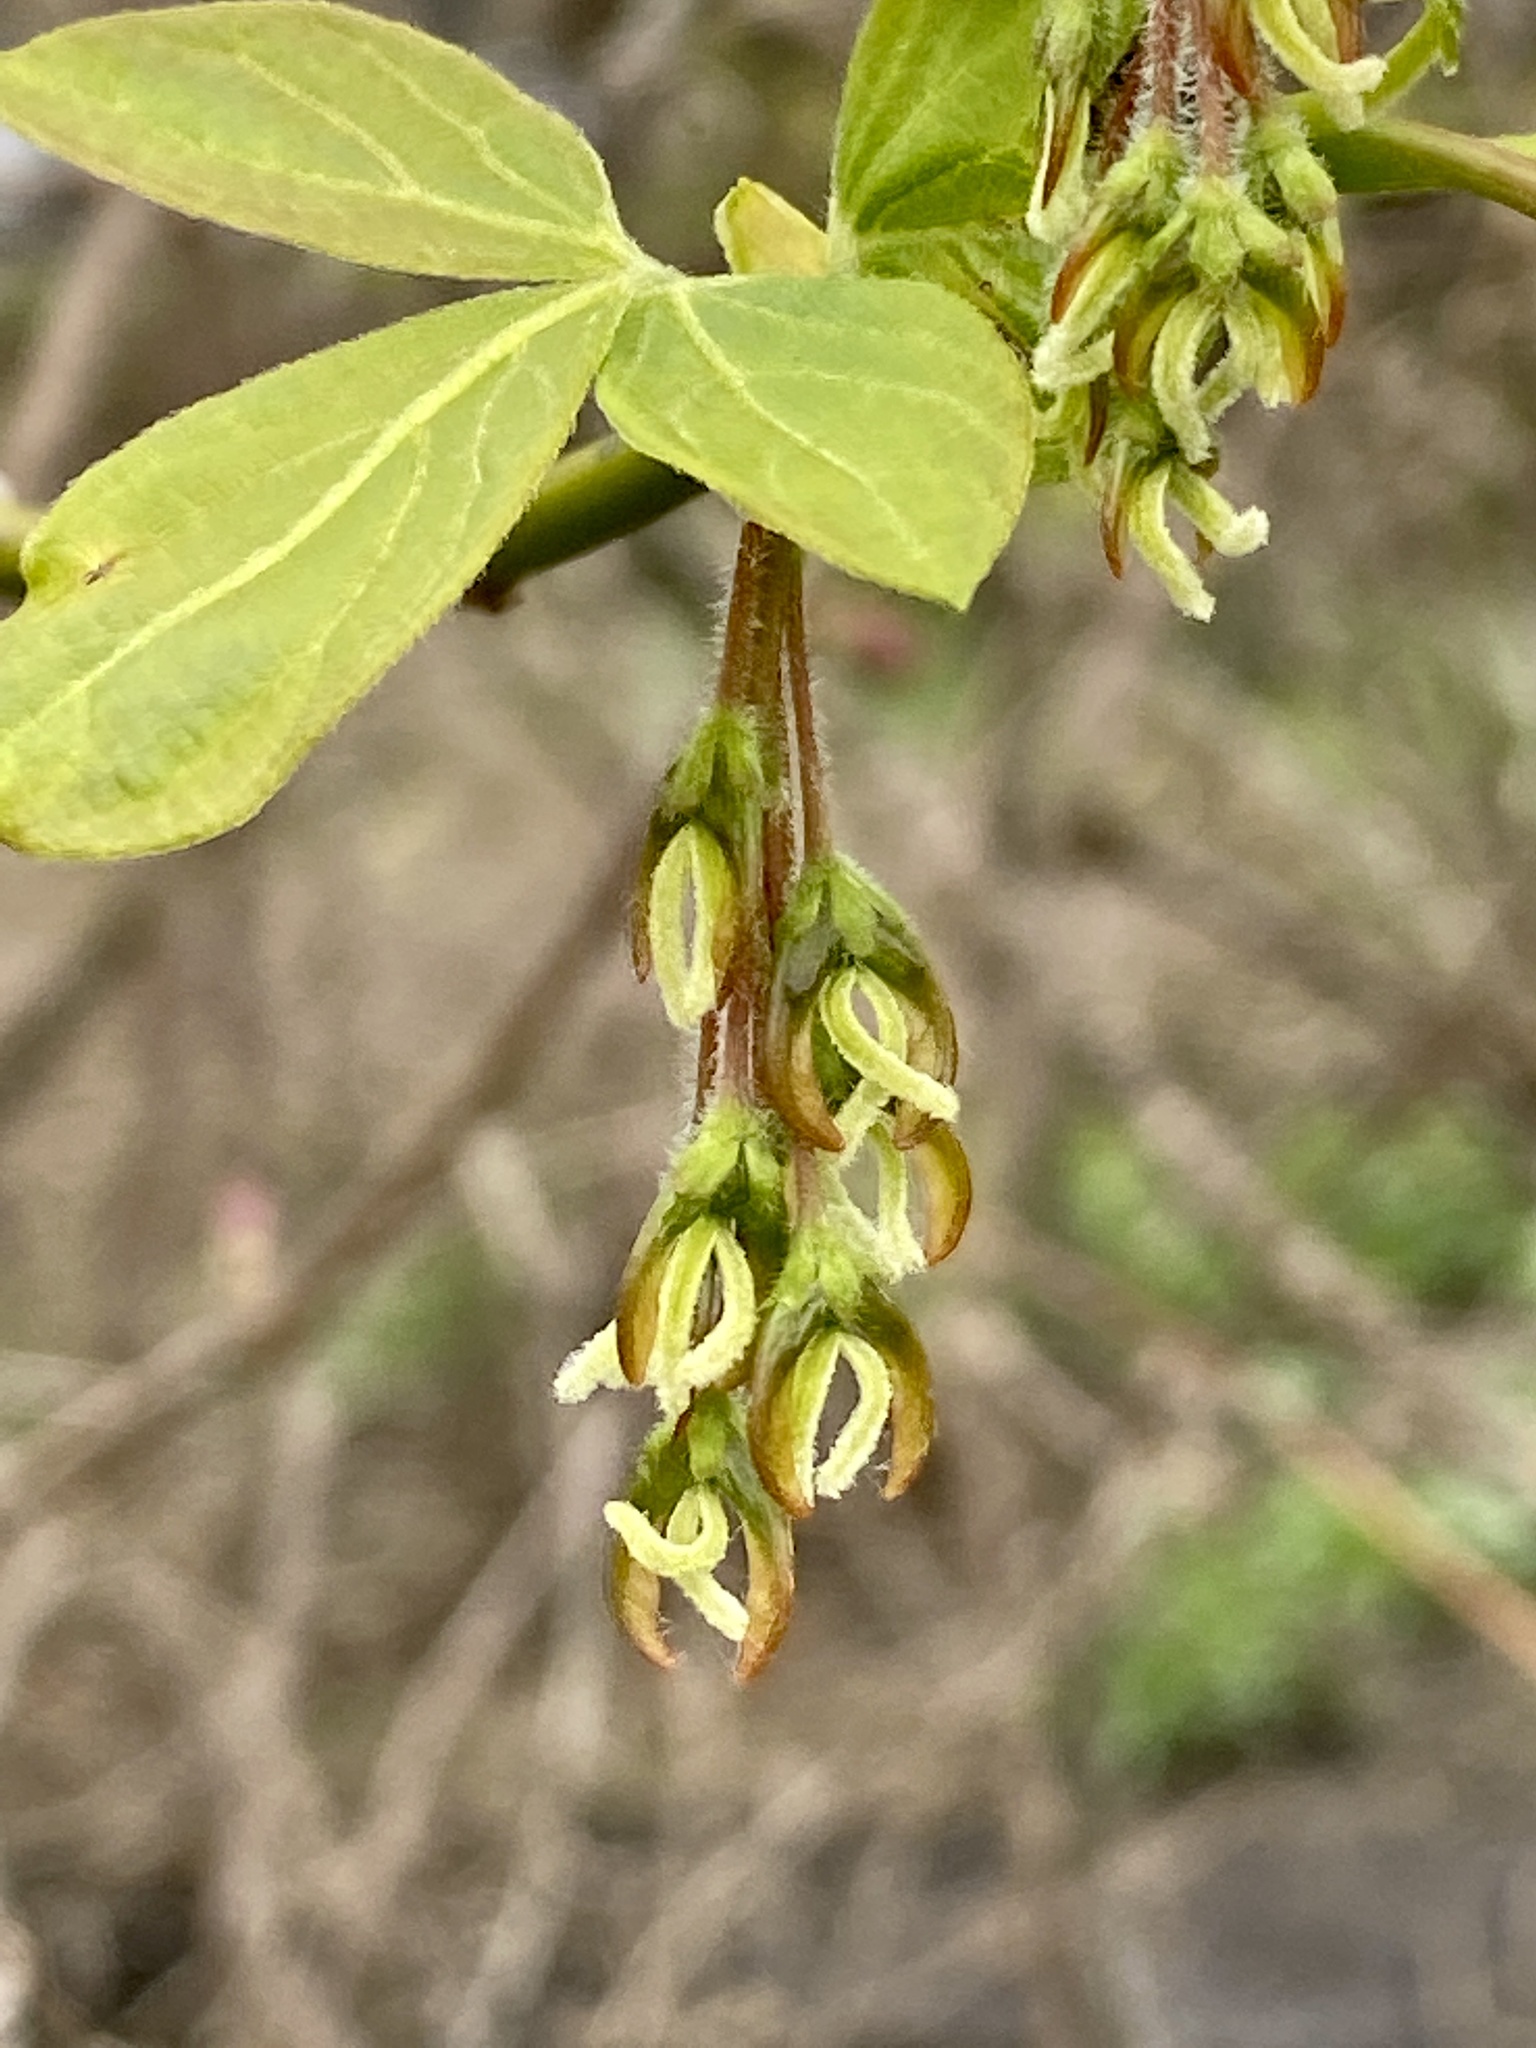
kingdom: Plantae
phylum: Tracheophyta
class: Magnoliopsida
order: Sapindales
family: Sapindaceae
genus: Acer
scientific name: Acer negundo
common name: Ashleaf maple
